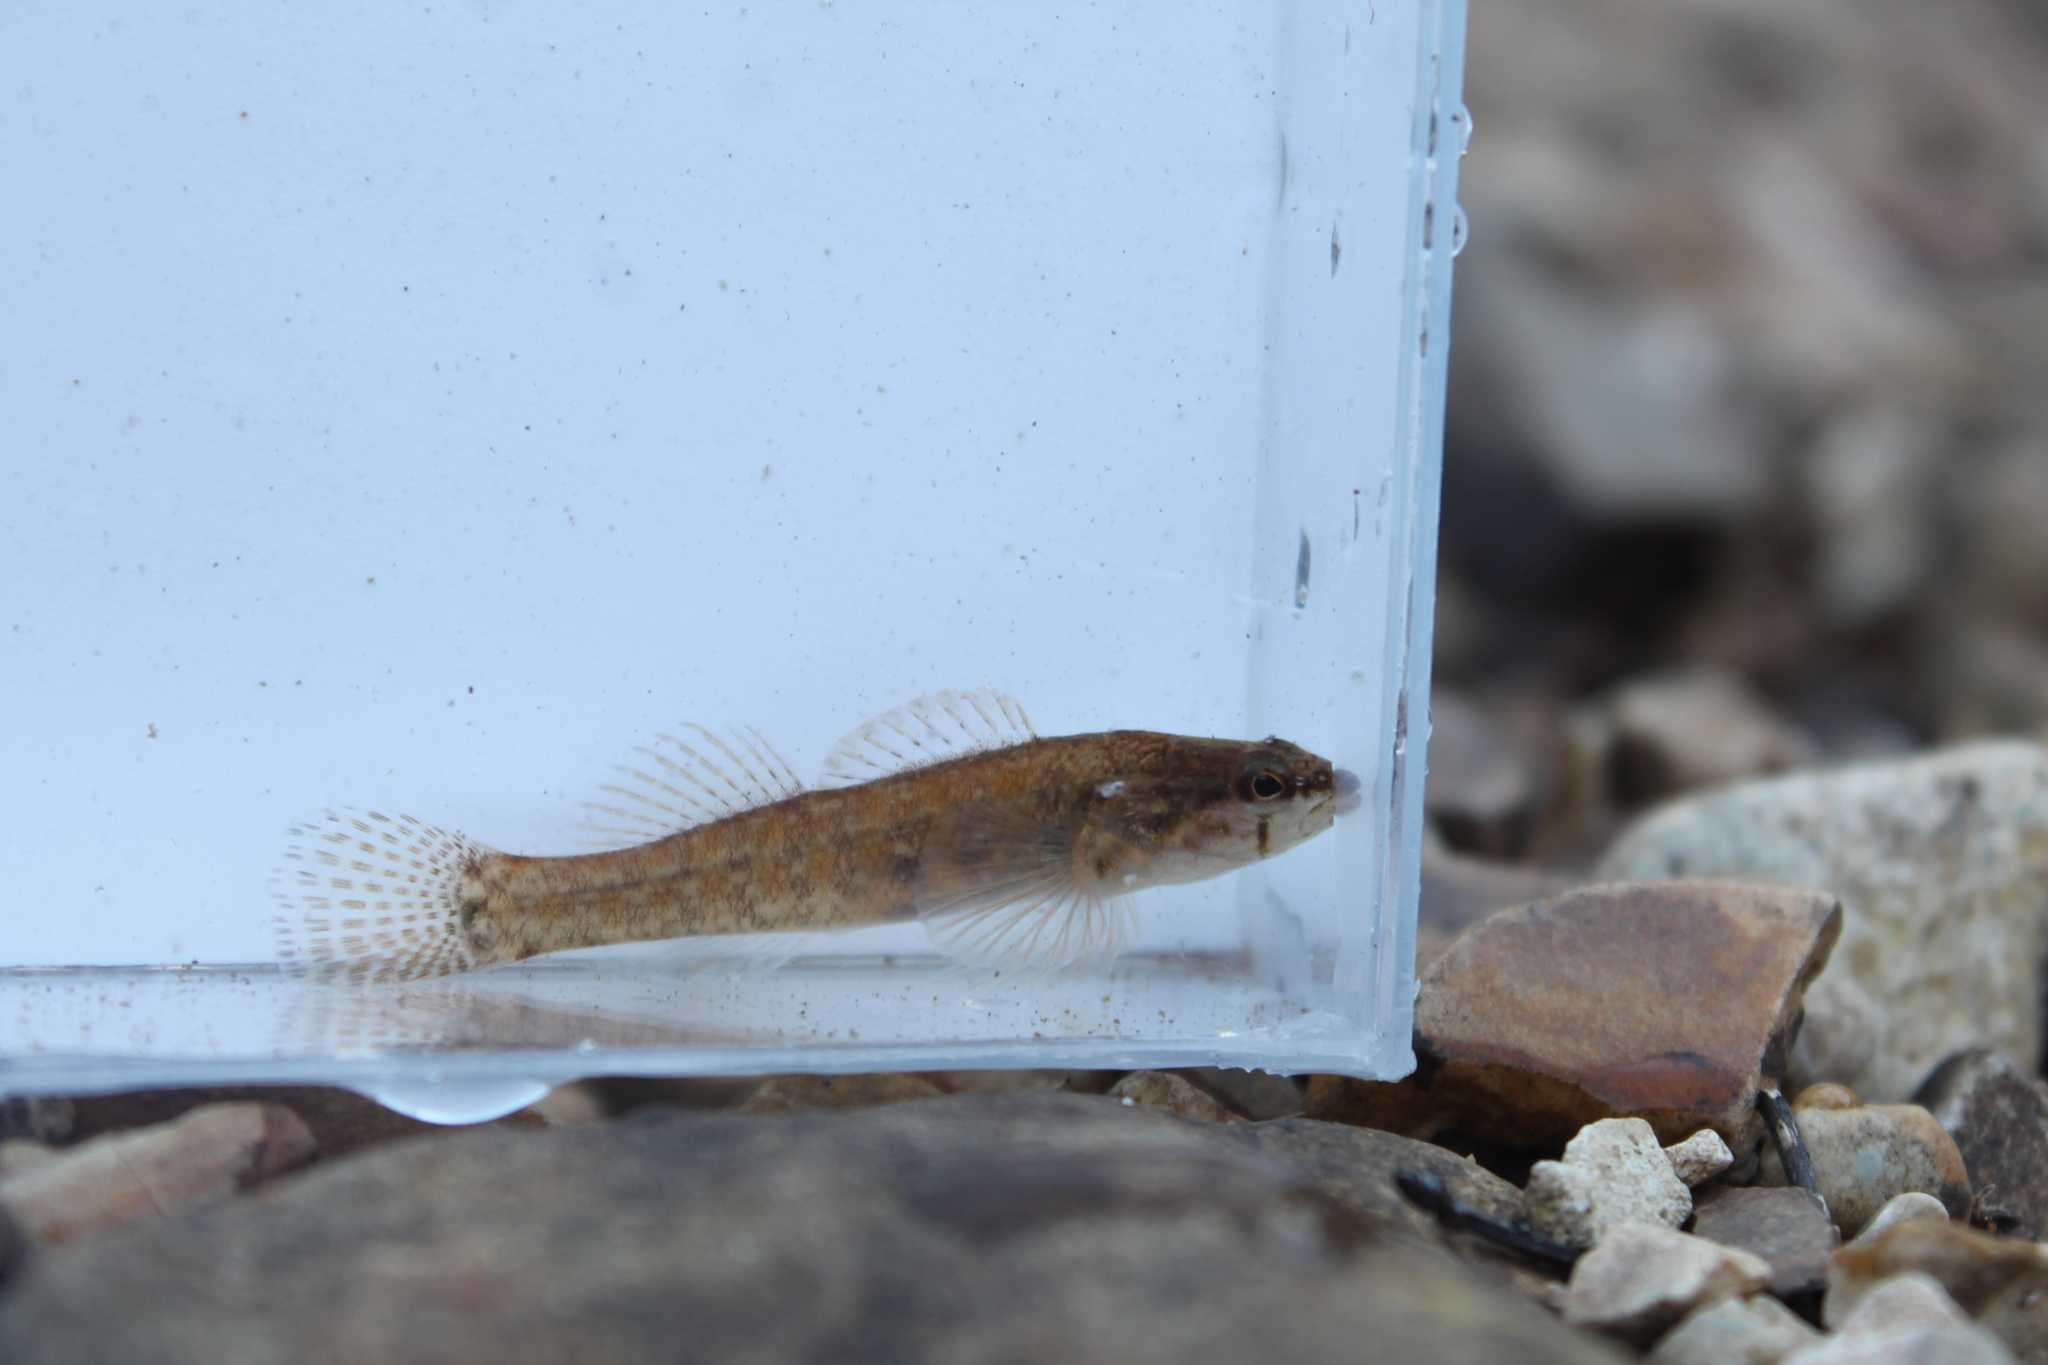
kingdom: Animalia
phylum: Chordata
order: Perciformes
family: Percidae
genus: Etheostoma
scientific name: Etheostoma oophylax
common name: Guardian darter
